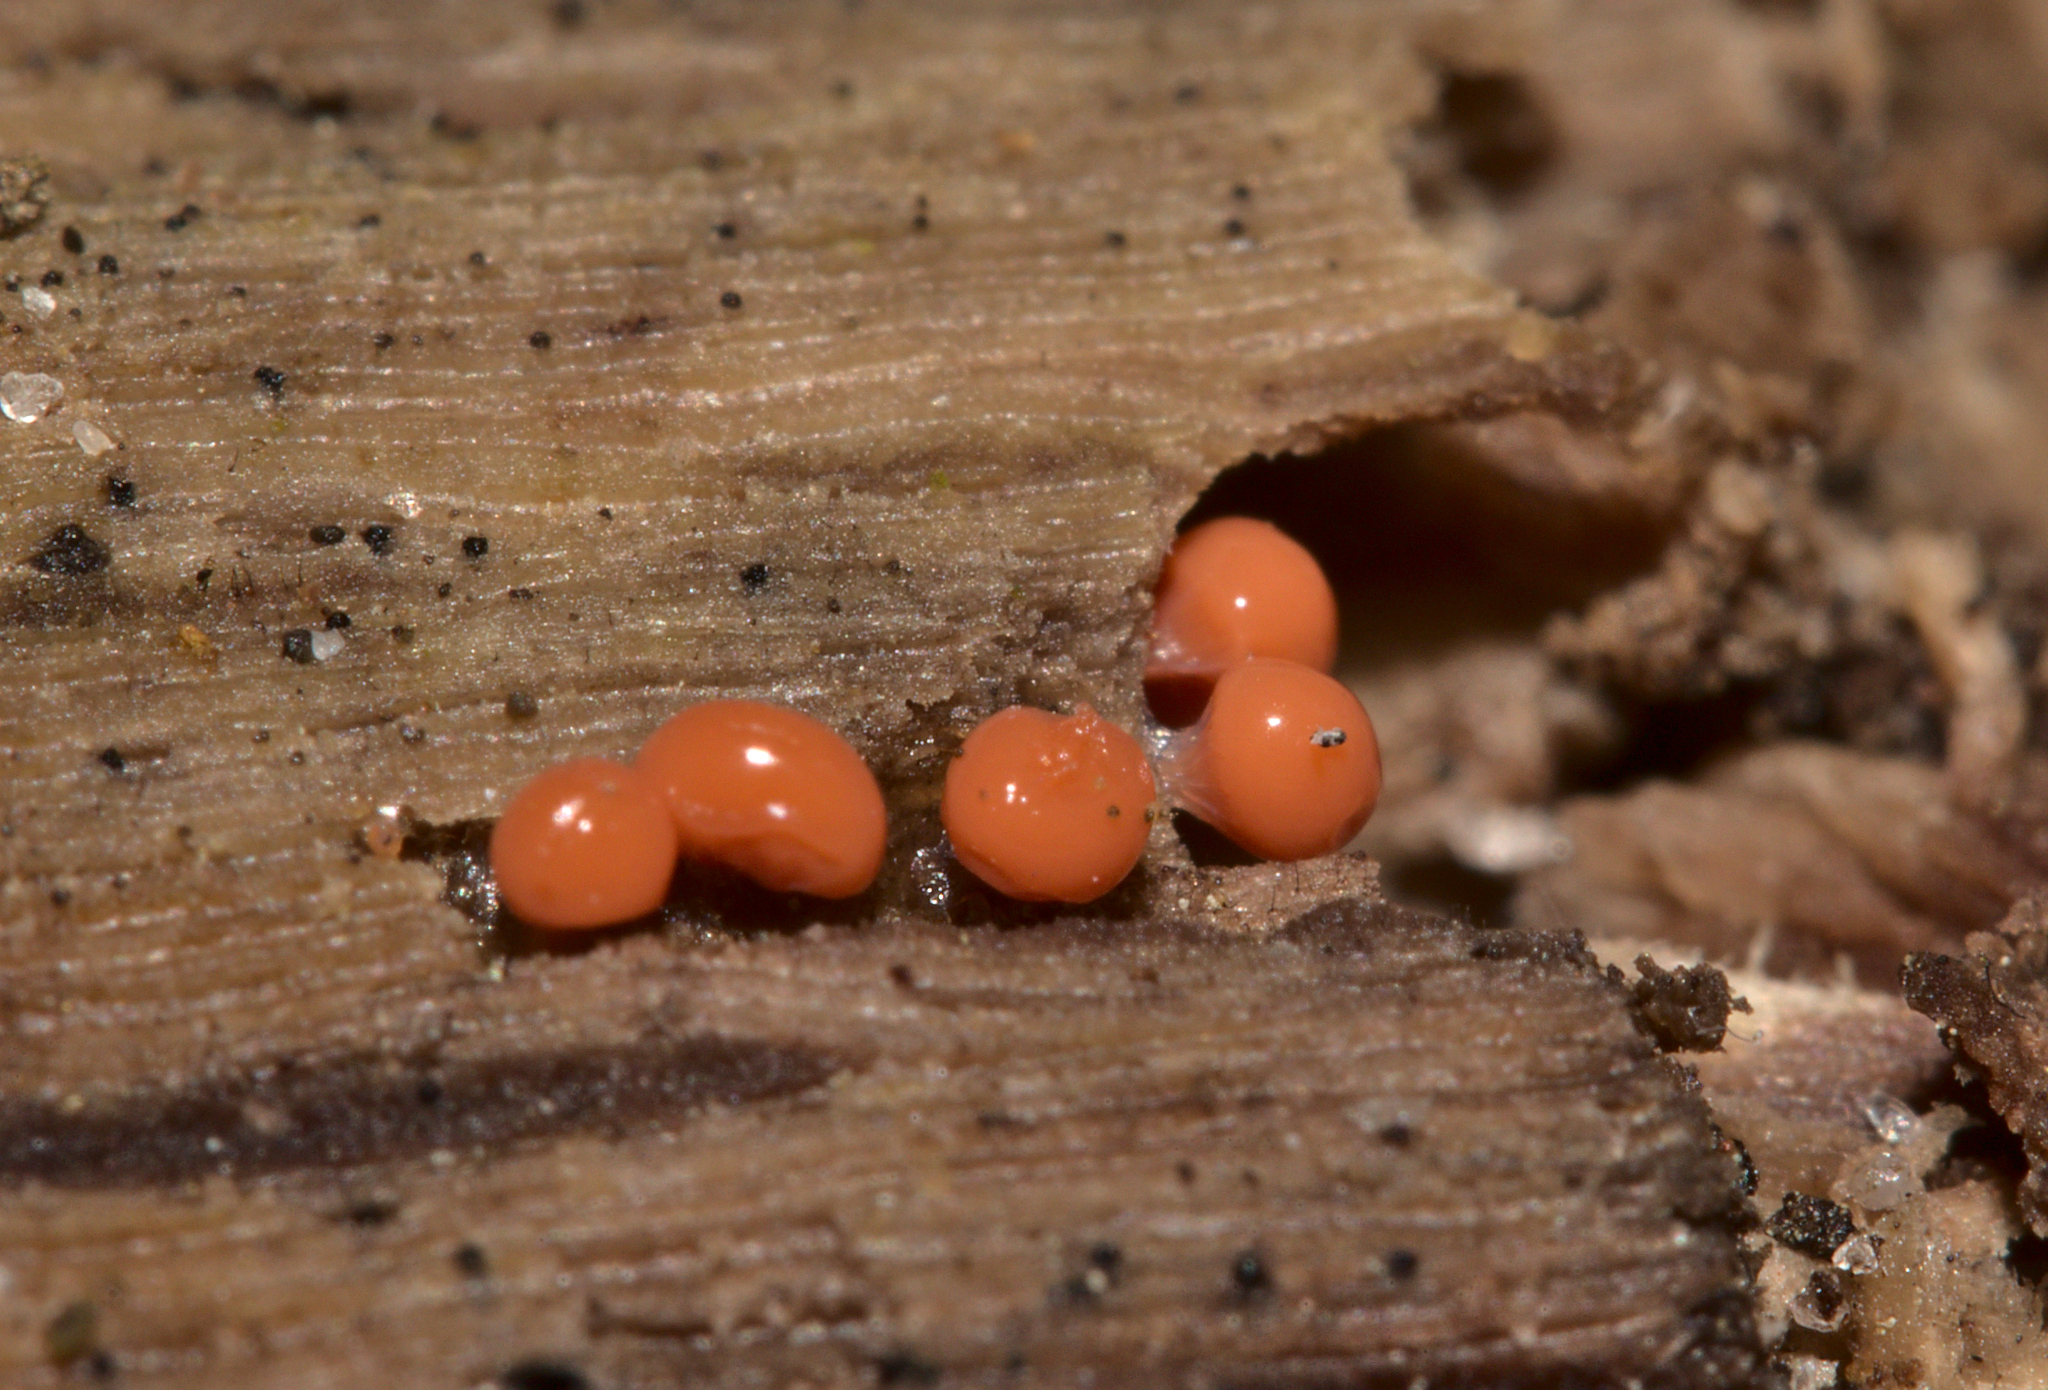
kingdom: Protozoa
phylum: Mycetozoa
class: Myxomycetes
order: Trichiales
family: Arcyriaceae
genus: Hemitrichia
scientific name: Hemitrichia
